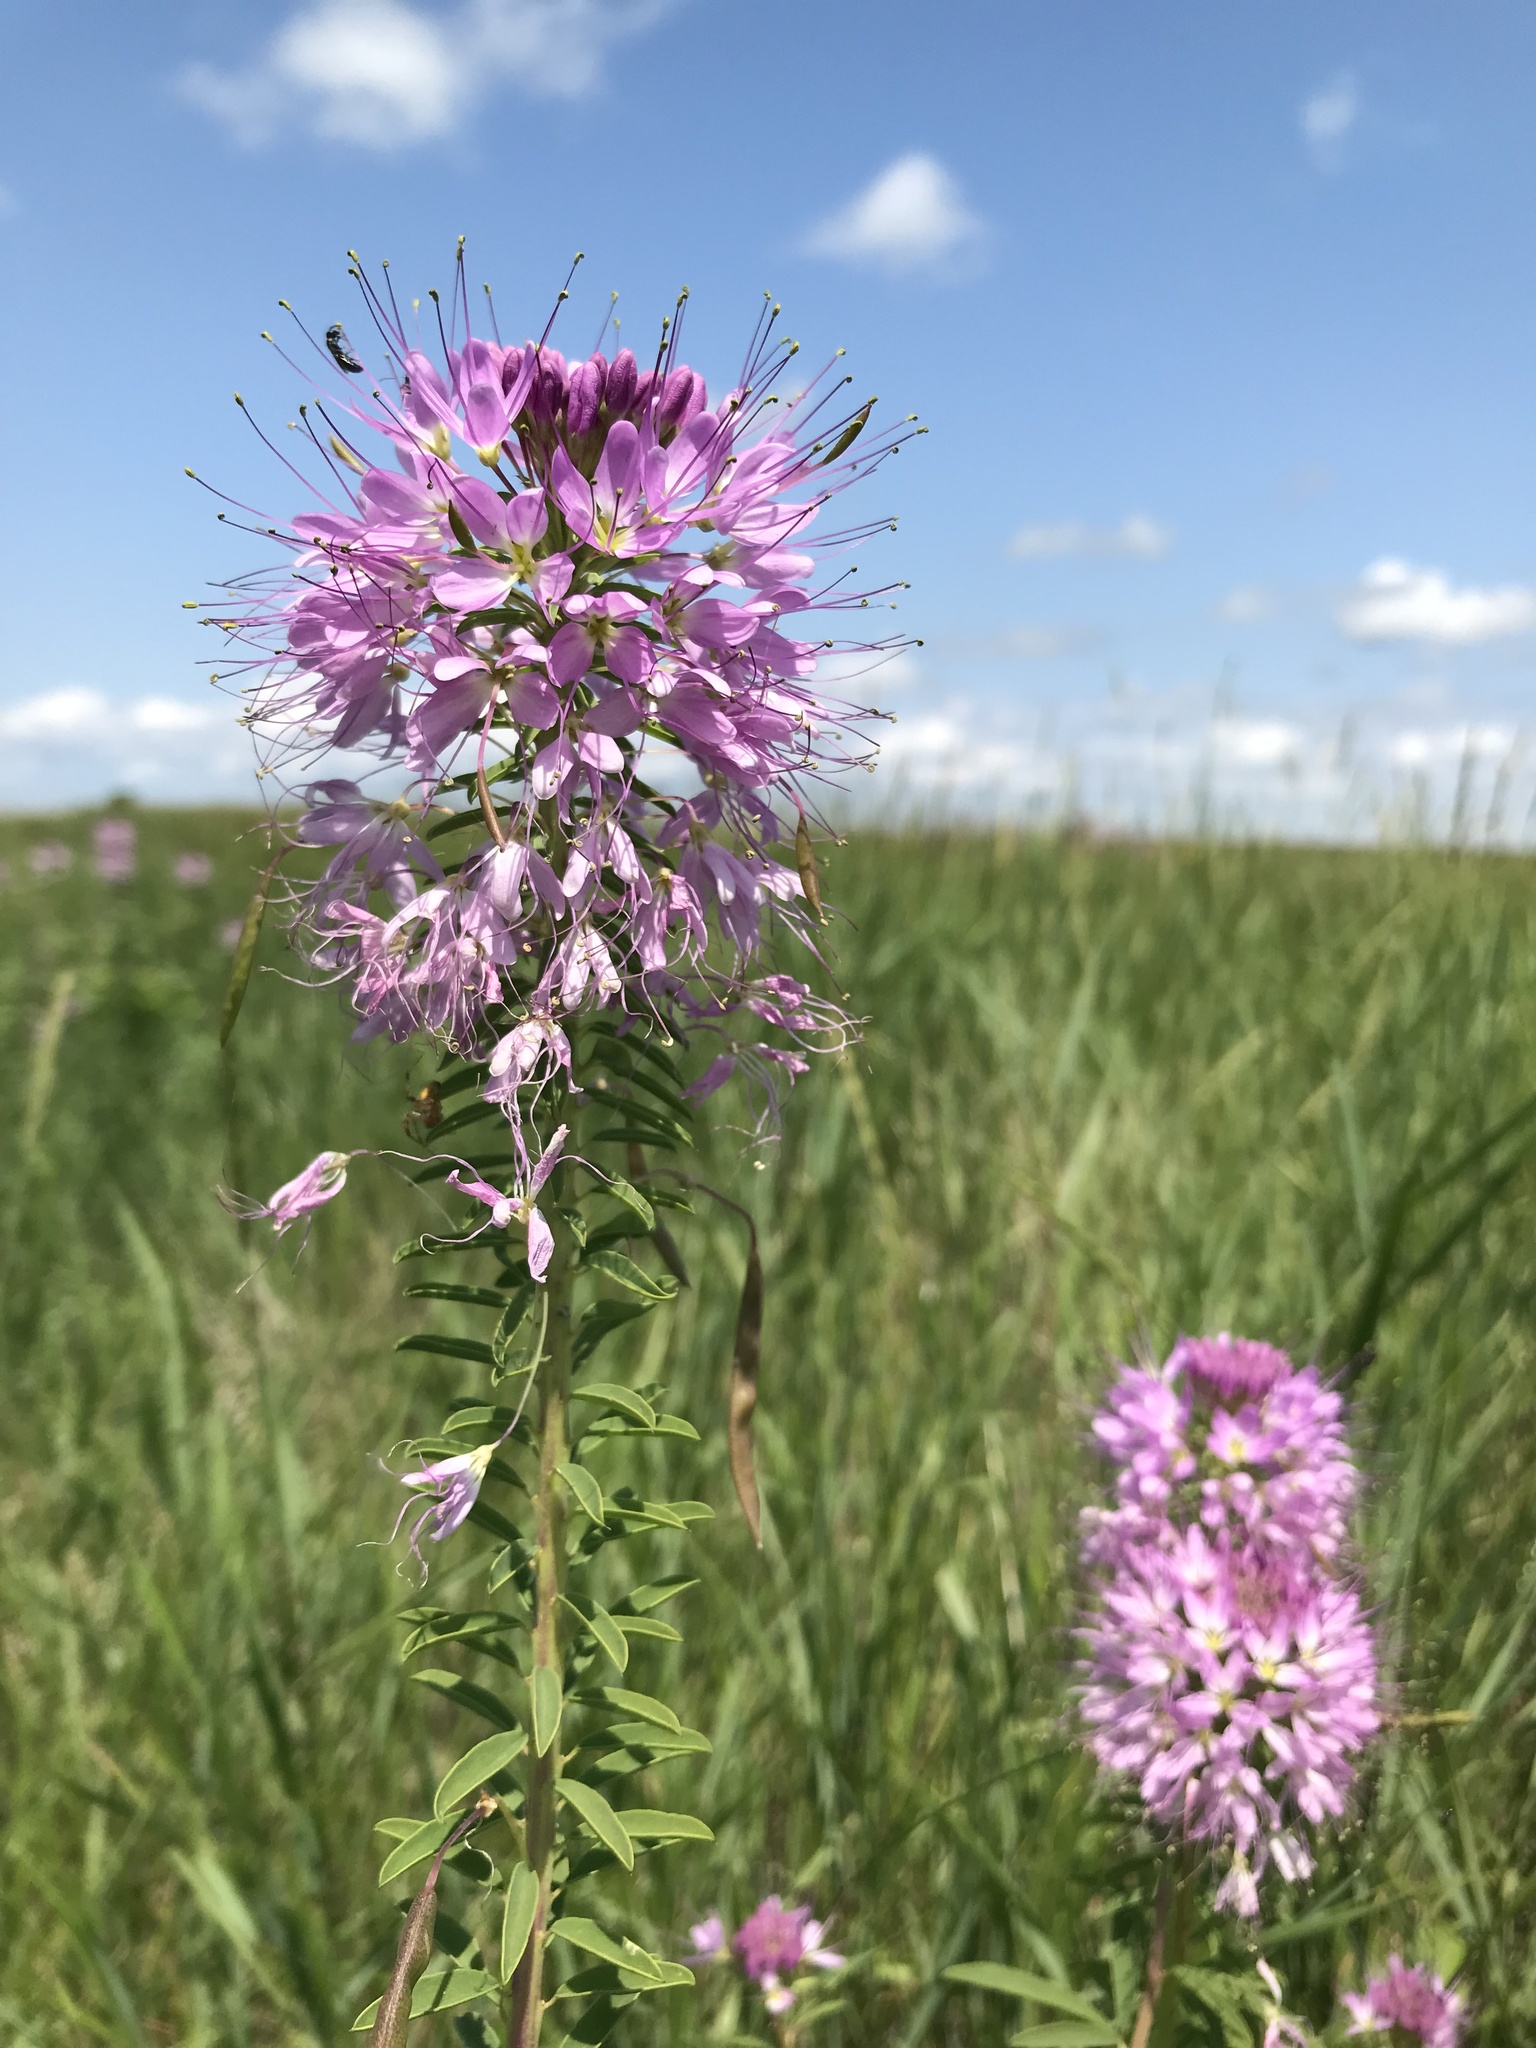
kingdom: Plantae
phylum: Tracheophyta
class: Magnoliopsida
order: Brassicales
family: Cleomaceae
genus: Cleomella
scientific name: Cleomella serrulata
